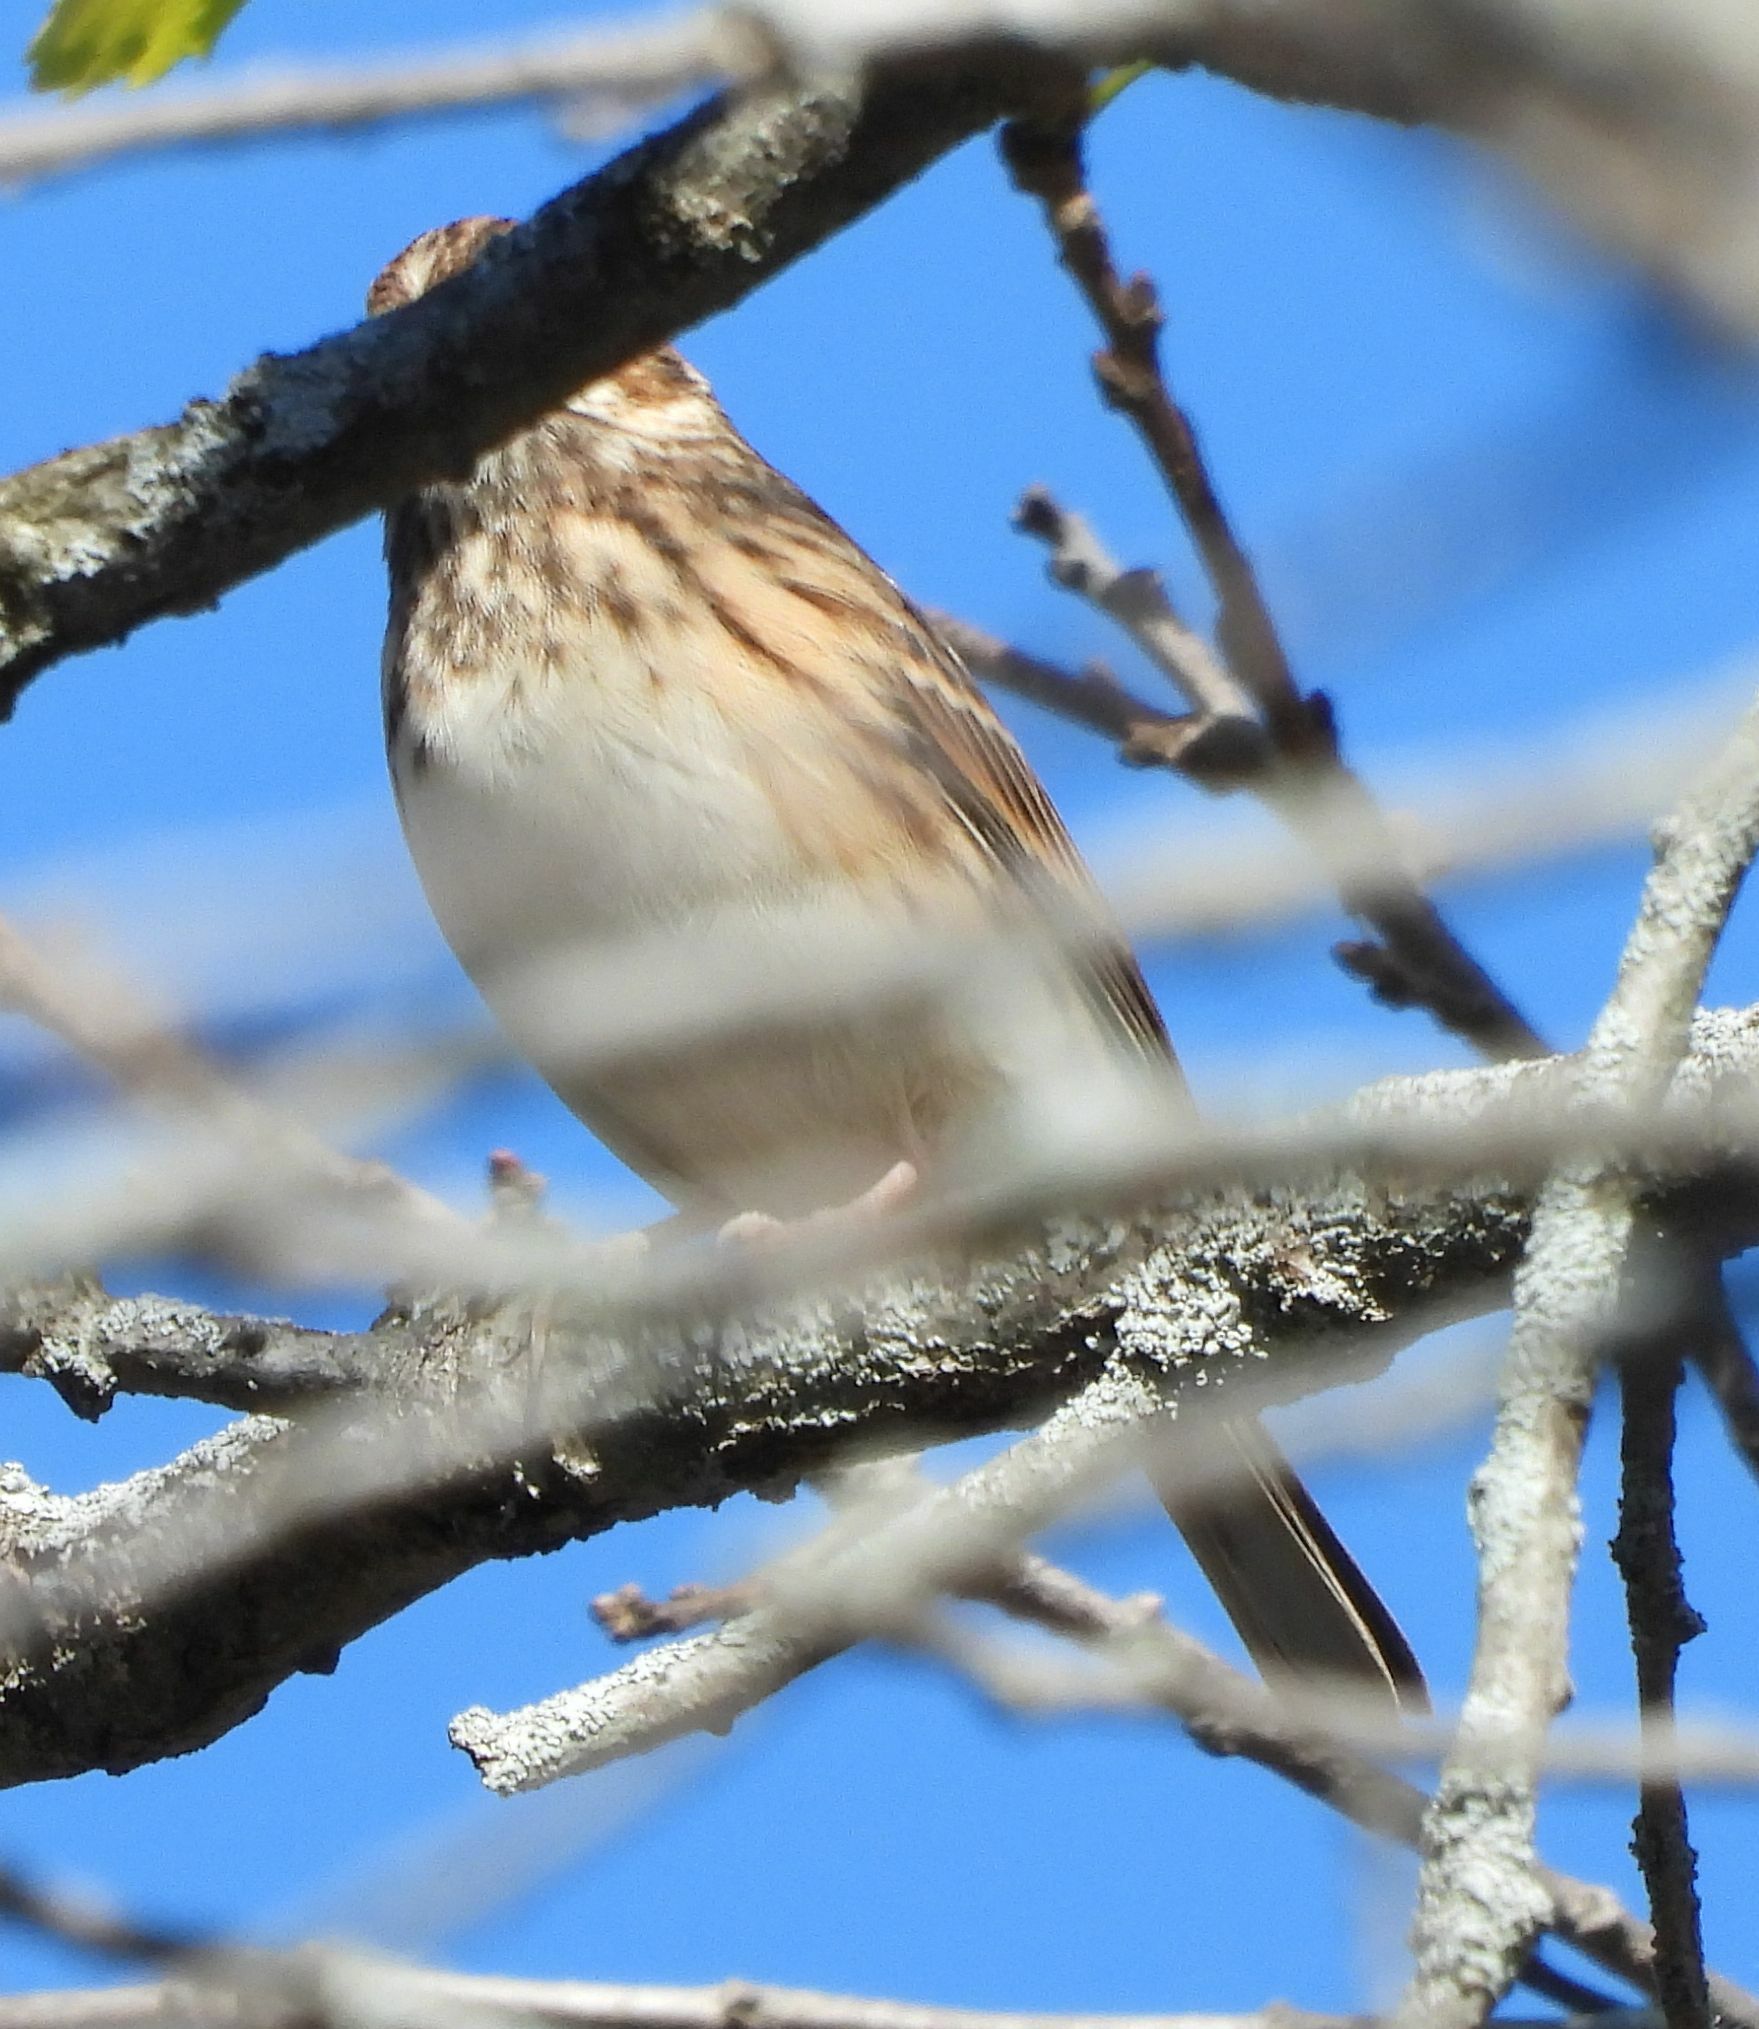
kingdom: Animalia
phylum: Chordata
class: Aves
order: Passeriformes
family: Passerellidae
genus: Pooecetes
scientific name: Pooecetes gramineus
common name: Vesper sparrow
